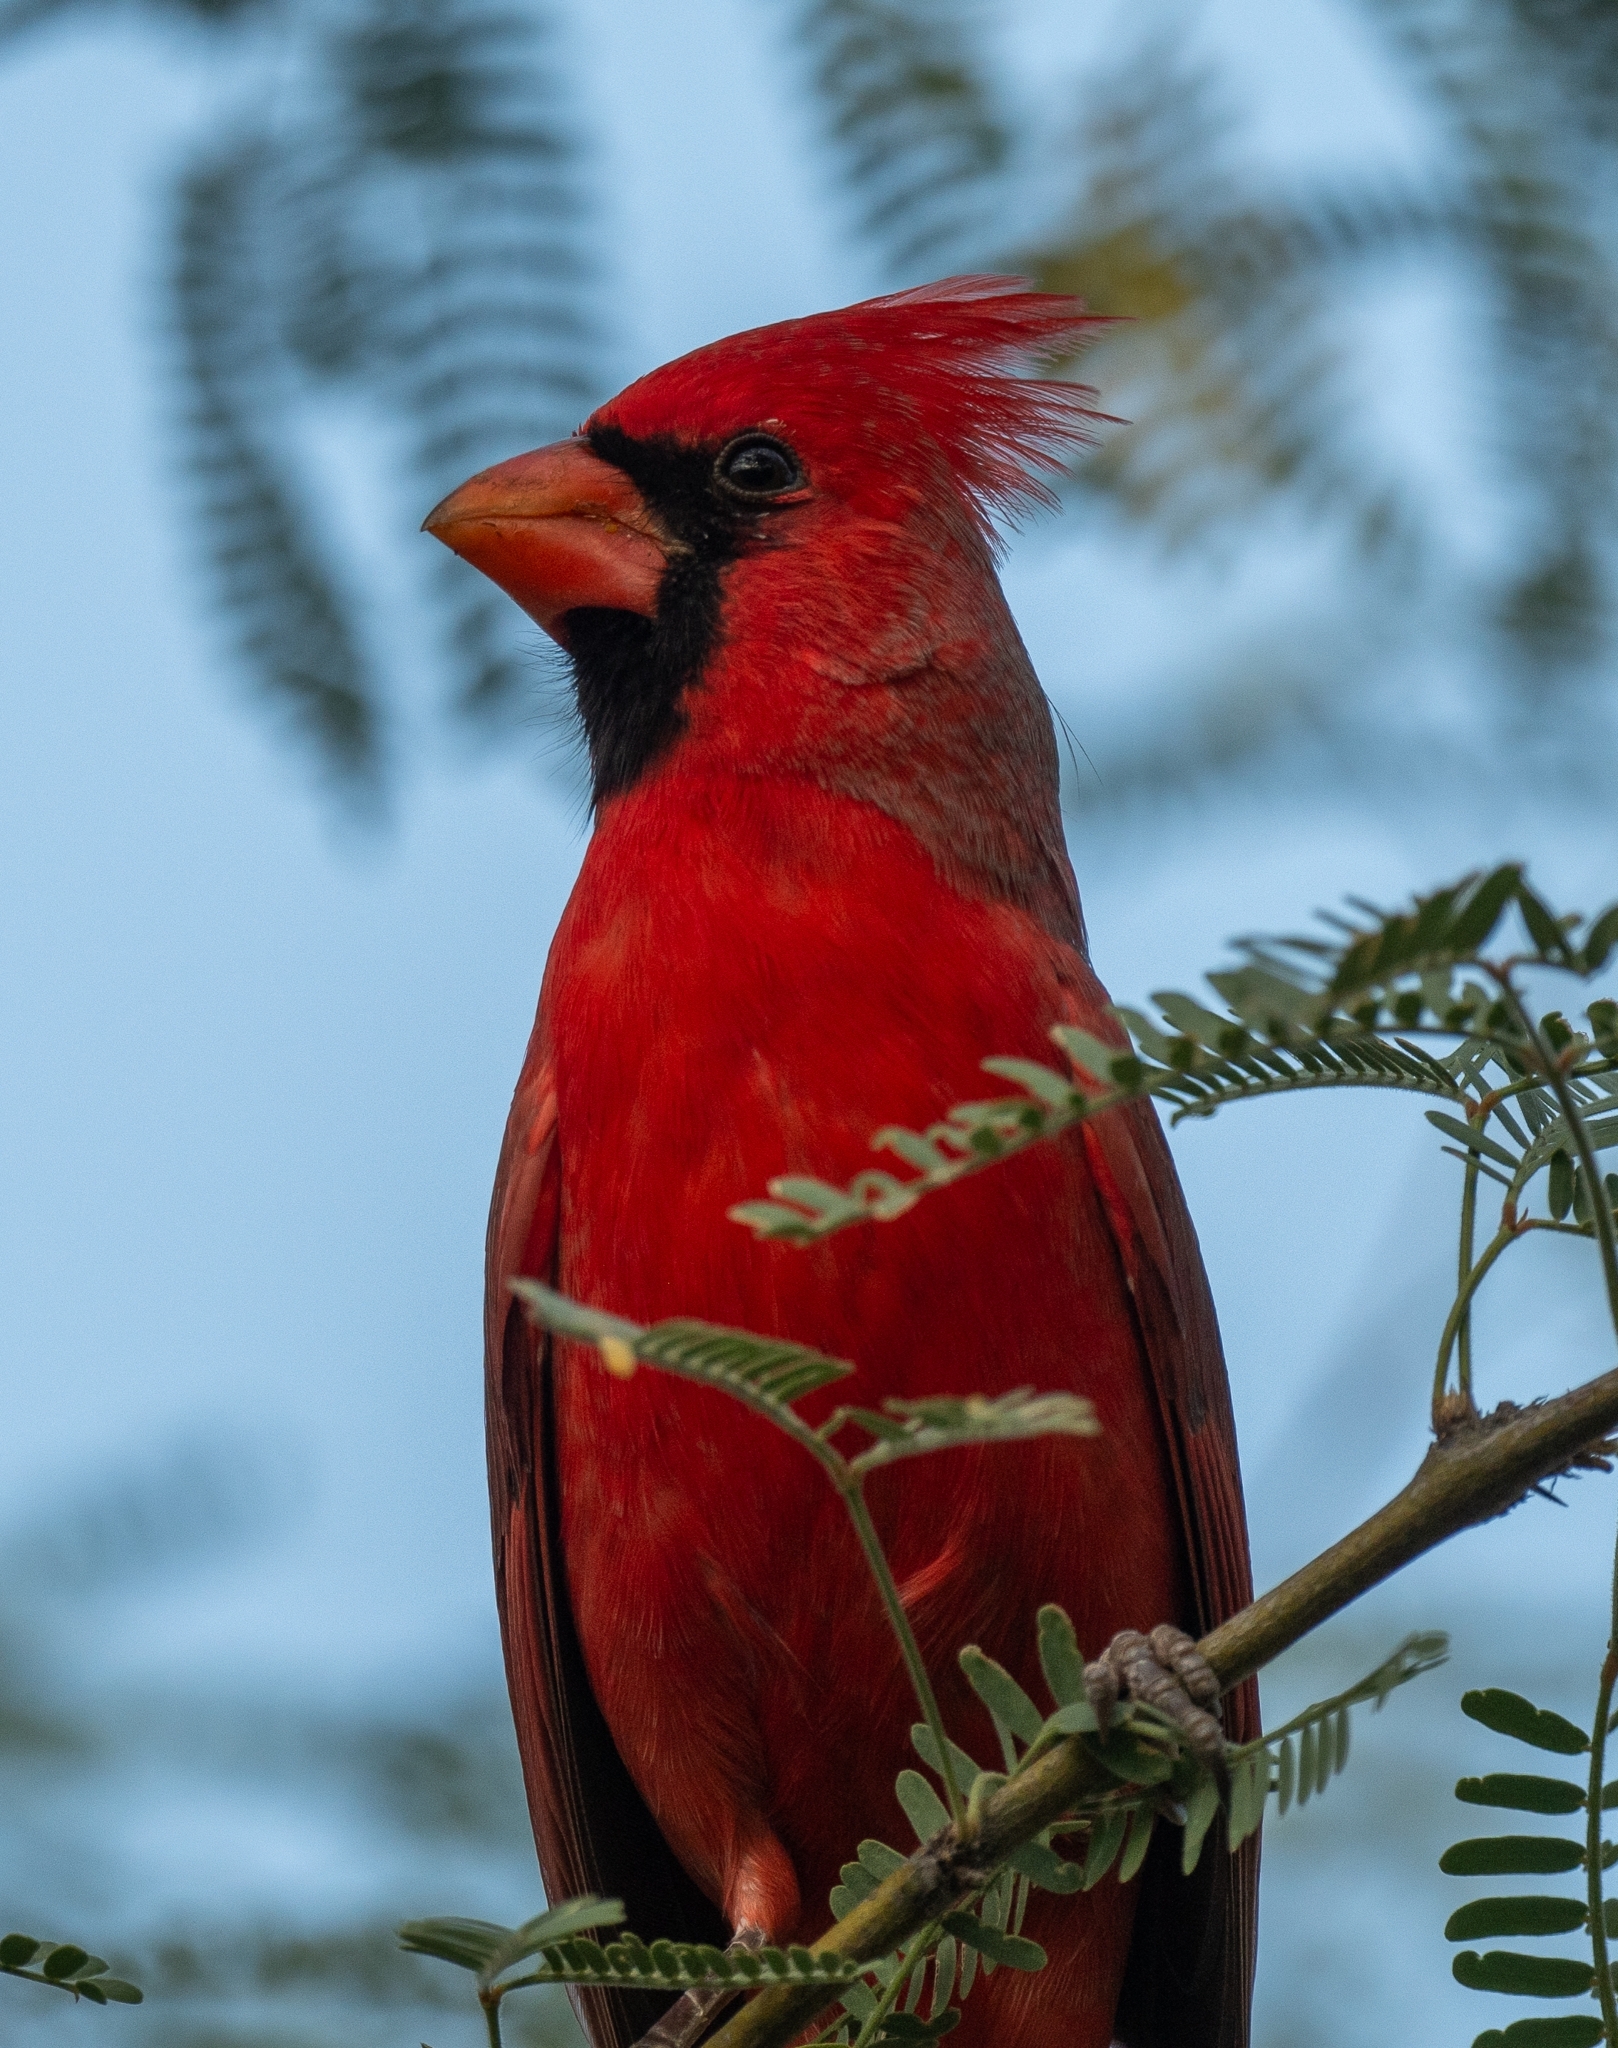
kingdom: Animalia
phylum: Chordata
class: Aves
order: Passeriformes
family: Cardinalidae
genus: Cardinalis
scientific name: Cardinalis cardinalis
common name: Northern cardinal
